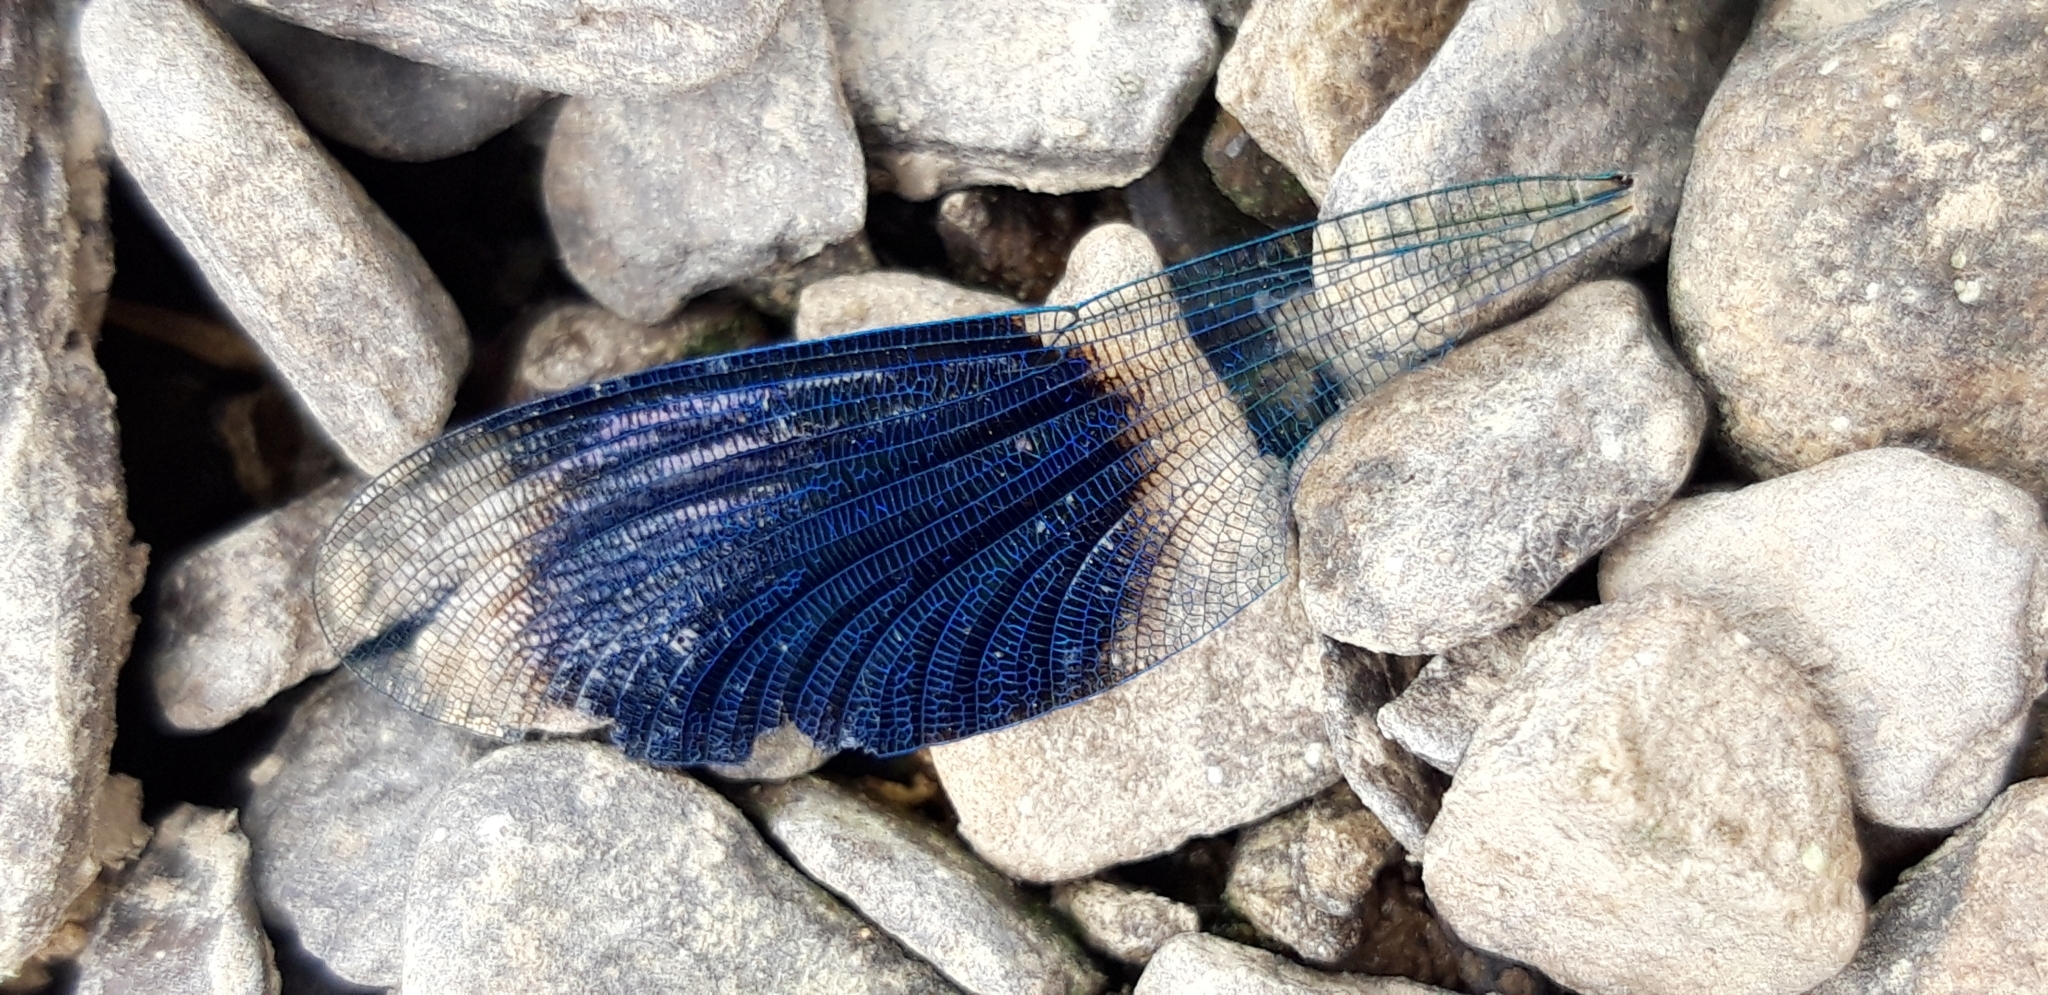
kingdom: Animalia
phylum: Arthropoda
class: Insecta
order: Odonata
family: Calopterygidae
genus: Calopteryx
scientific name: Calopteryx splendens
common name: Banded demoiselle
